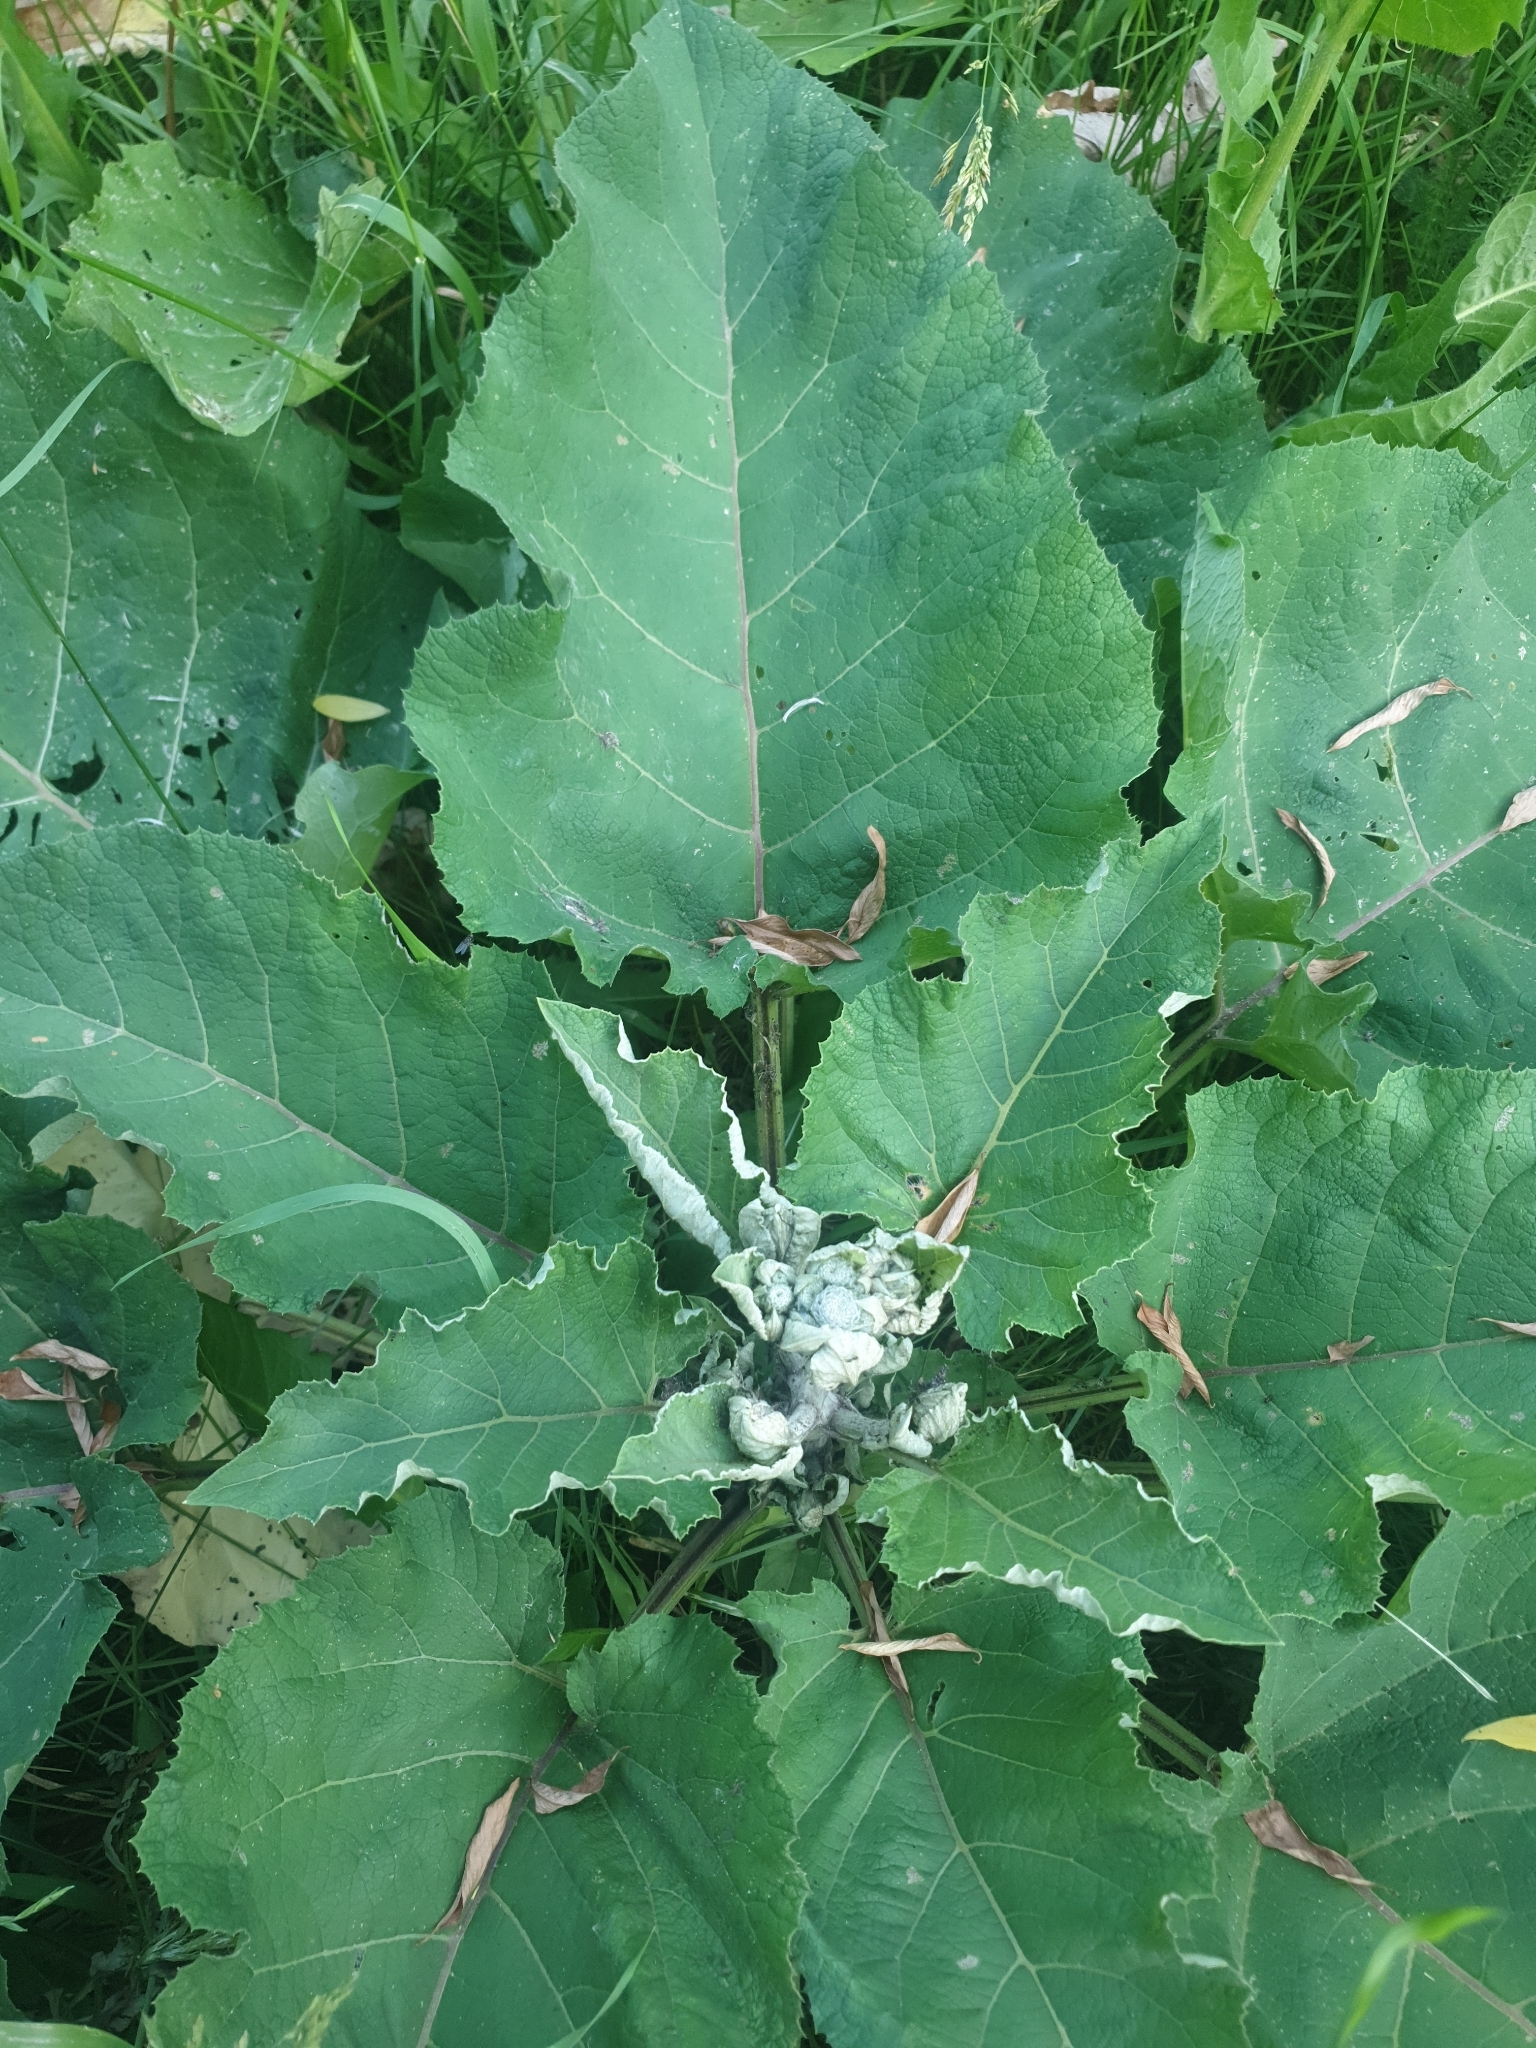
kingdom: Plantae
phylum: Tracheophyta
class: Magnoliopsida
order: Asterales
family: Asteraceae
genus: Arctium
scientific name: Arctium tomentosum
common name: Woolly burdock
